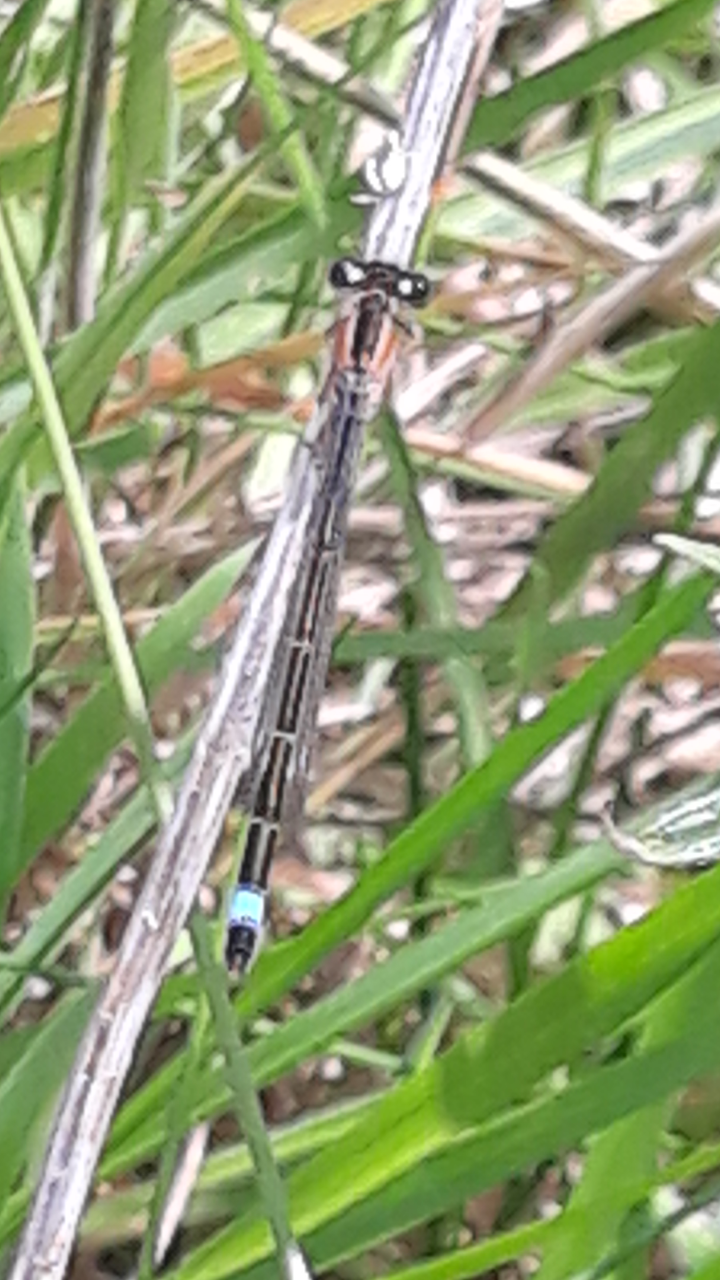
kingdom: Animalia
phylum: Arthropoda
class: Insecta
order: Odonata
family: Coenagrionidae
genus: Ischnura
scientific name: Ischnura elegans
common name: Blue-tailed damselfly
